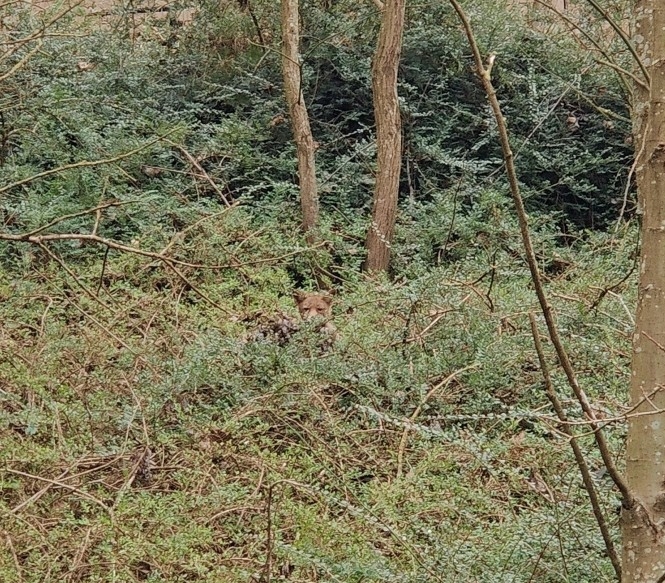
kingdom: Animalia
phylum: Chordata
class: Mammalia
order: Carnivora
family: Canidae
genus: Vulpes
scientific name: Vulpes vulpes
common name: Red fox
